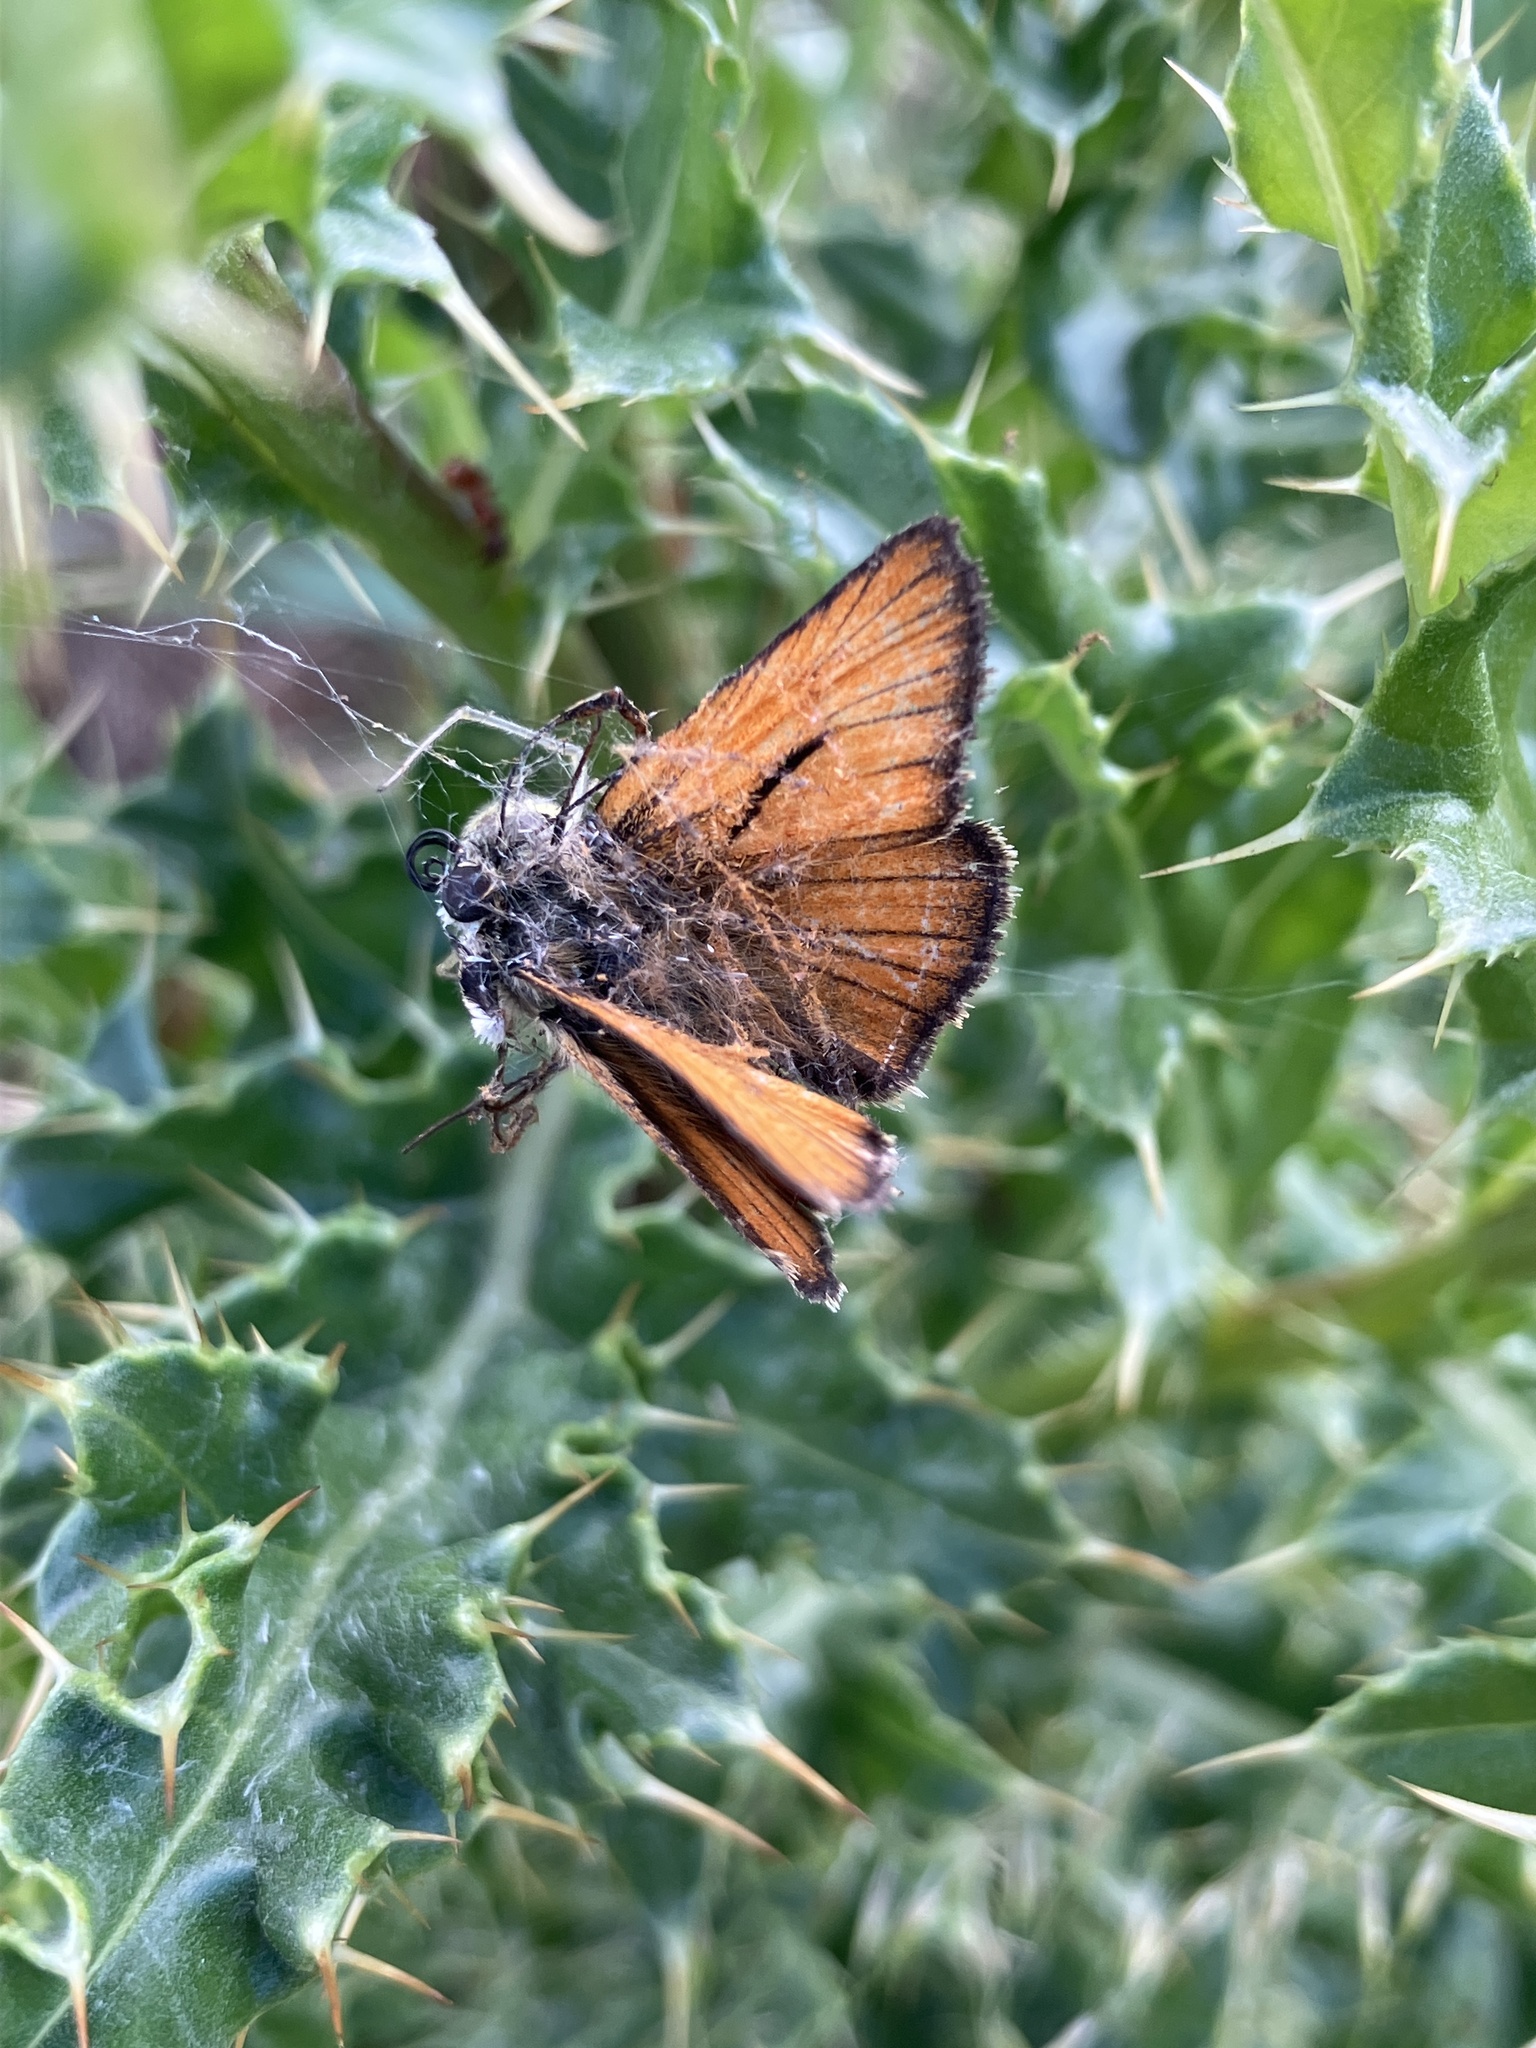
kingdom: Animalia
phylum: Arthropoda
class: Insecta
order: Lepidoptera
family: Hesperiidae
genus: Thymelicus
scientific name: Thymelicus sylvestris
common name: Small skipper
